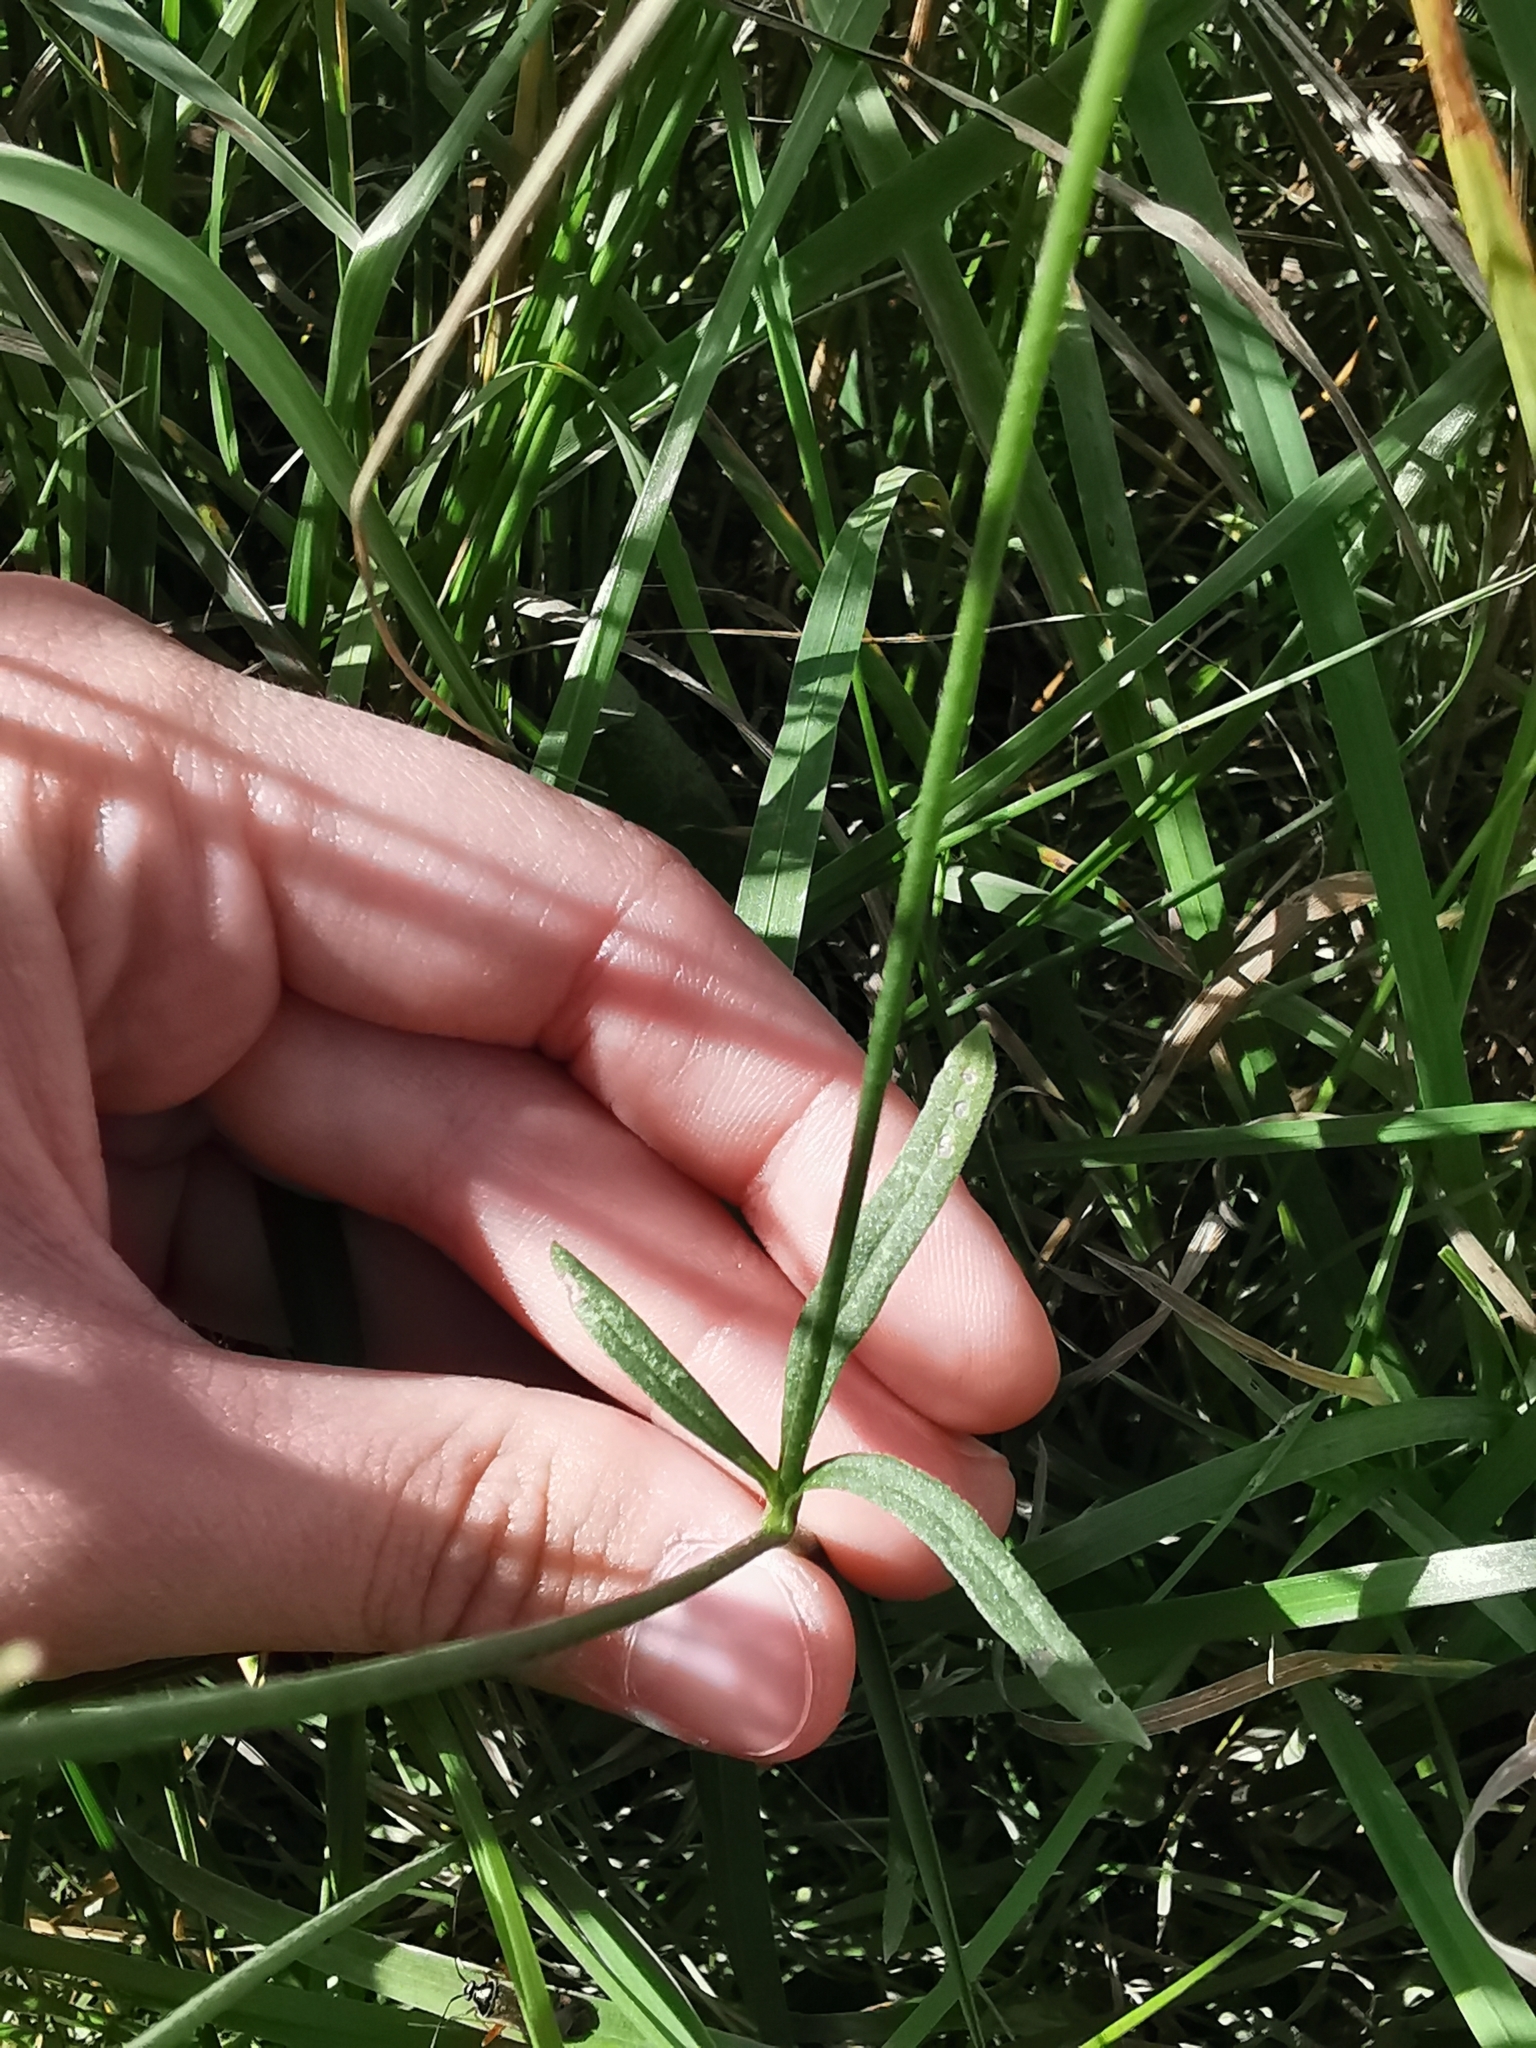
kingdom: Plantae
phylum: Tracheophyta
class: Magnoliopsida
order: Ranunculales
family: Ranunculaceae
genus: Ranunculus
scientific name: Ranunculus acris
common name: Meadow buttercup
